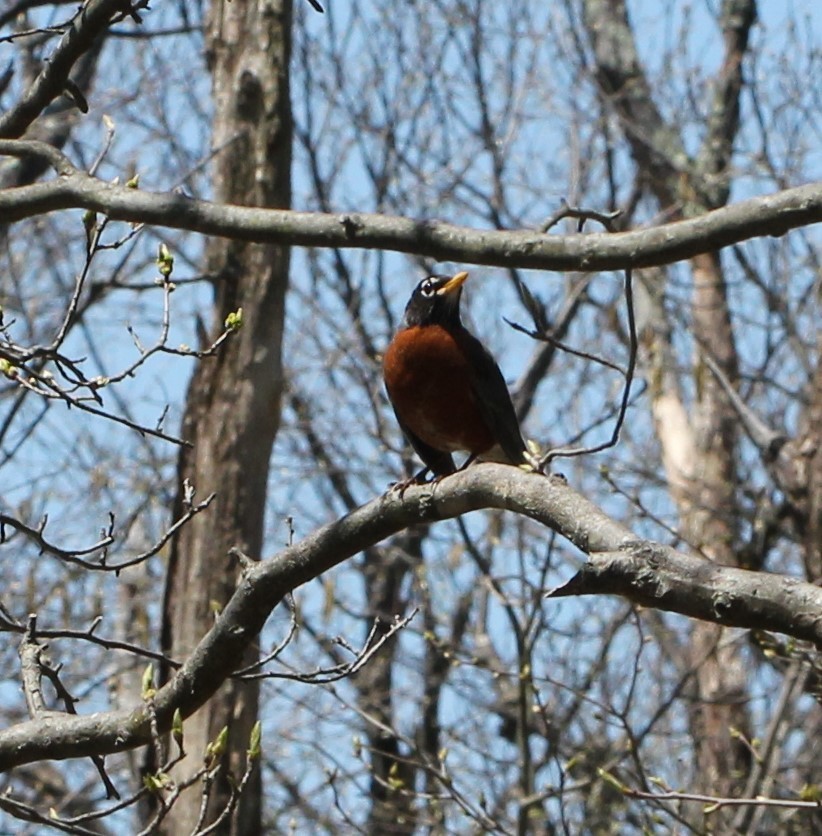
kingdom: Animalia
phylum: Chordata
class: Aves
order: Passeriformes
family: Turdidae
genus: Turdus
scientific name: Turdus migratorius
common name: American robin
